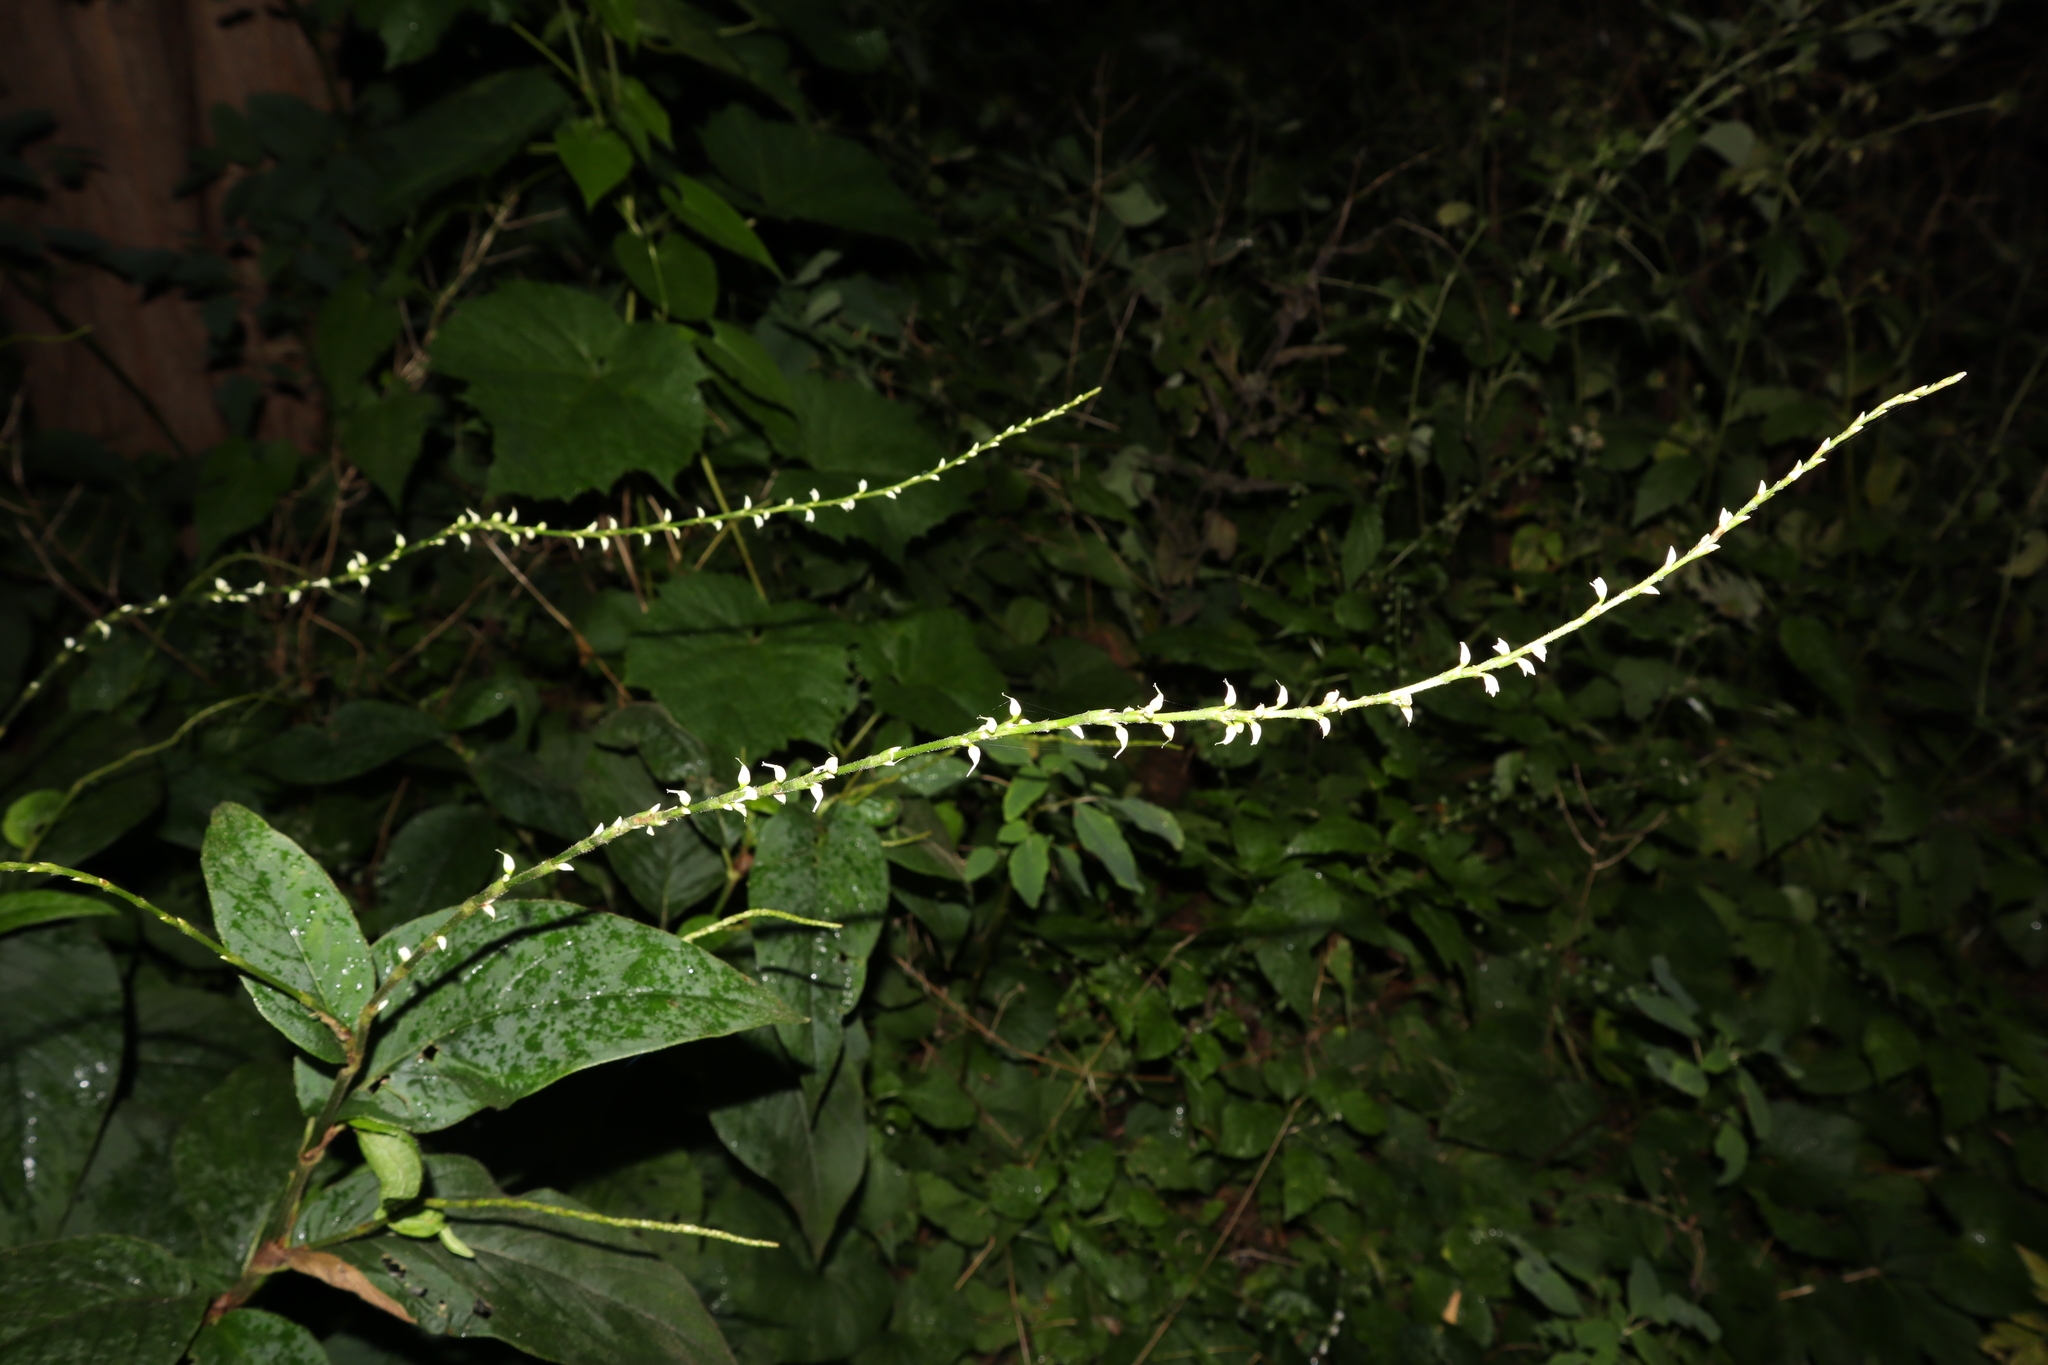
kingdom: Plantae
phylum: Tracheophyta
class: Magnoliopsida
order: Caryophyllales
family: Polygonaceae
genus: Persicaria
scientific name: Persicaria virginiana
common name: Jumpseed
